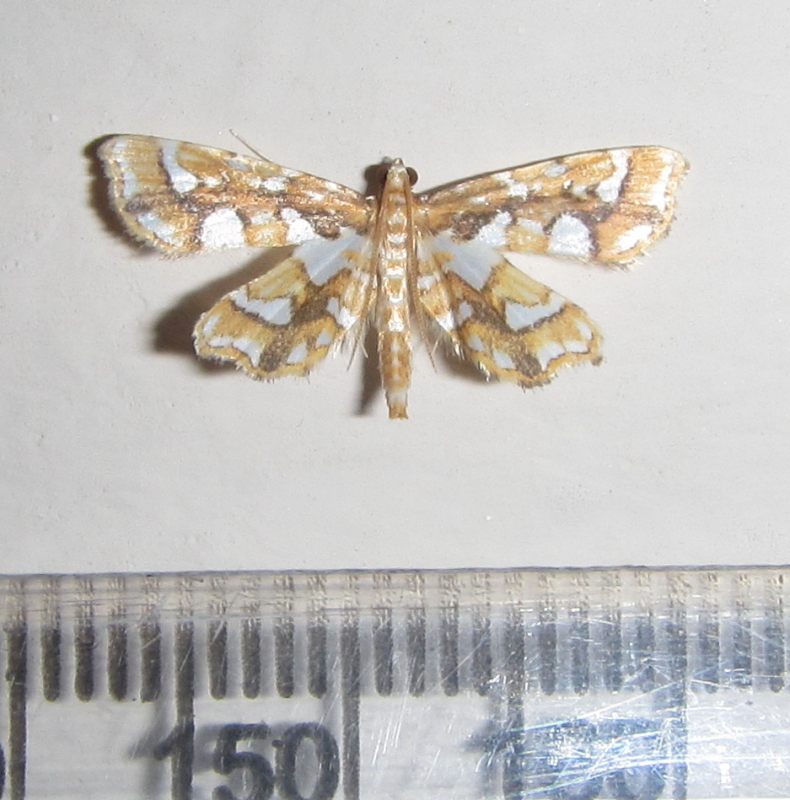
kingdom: Animalia
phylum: Arthropoda
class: Insecta
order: Lepidoptera
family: Crambidae
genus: Ambia
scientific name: Ambia chalcichroalis
